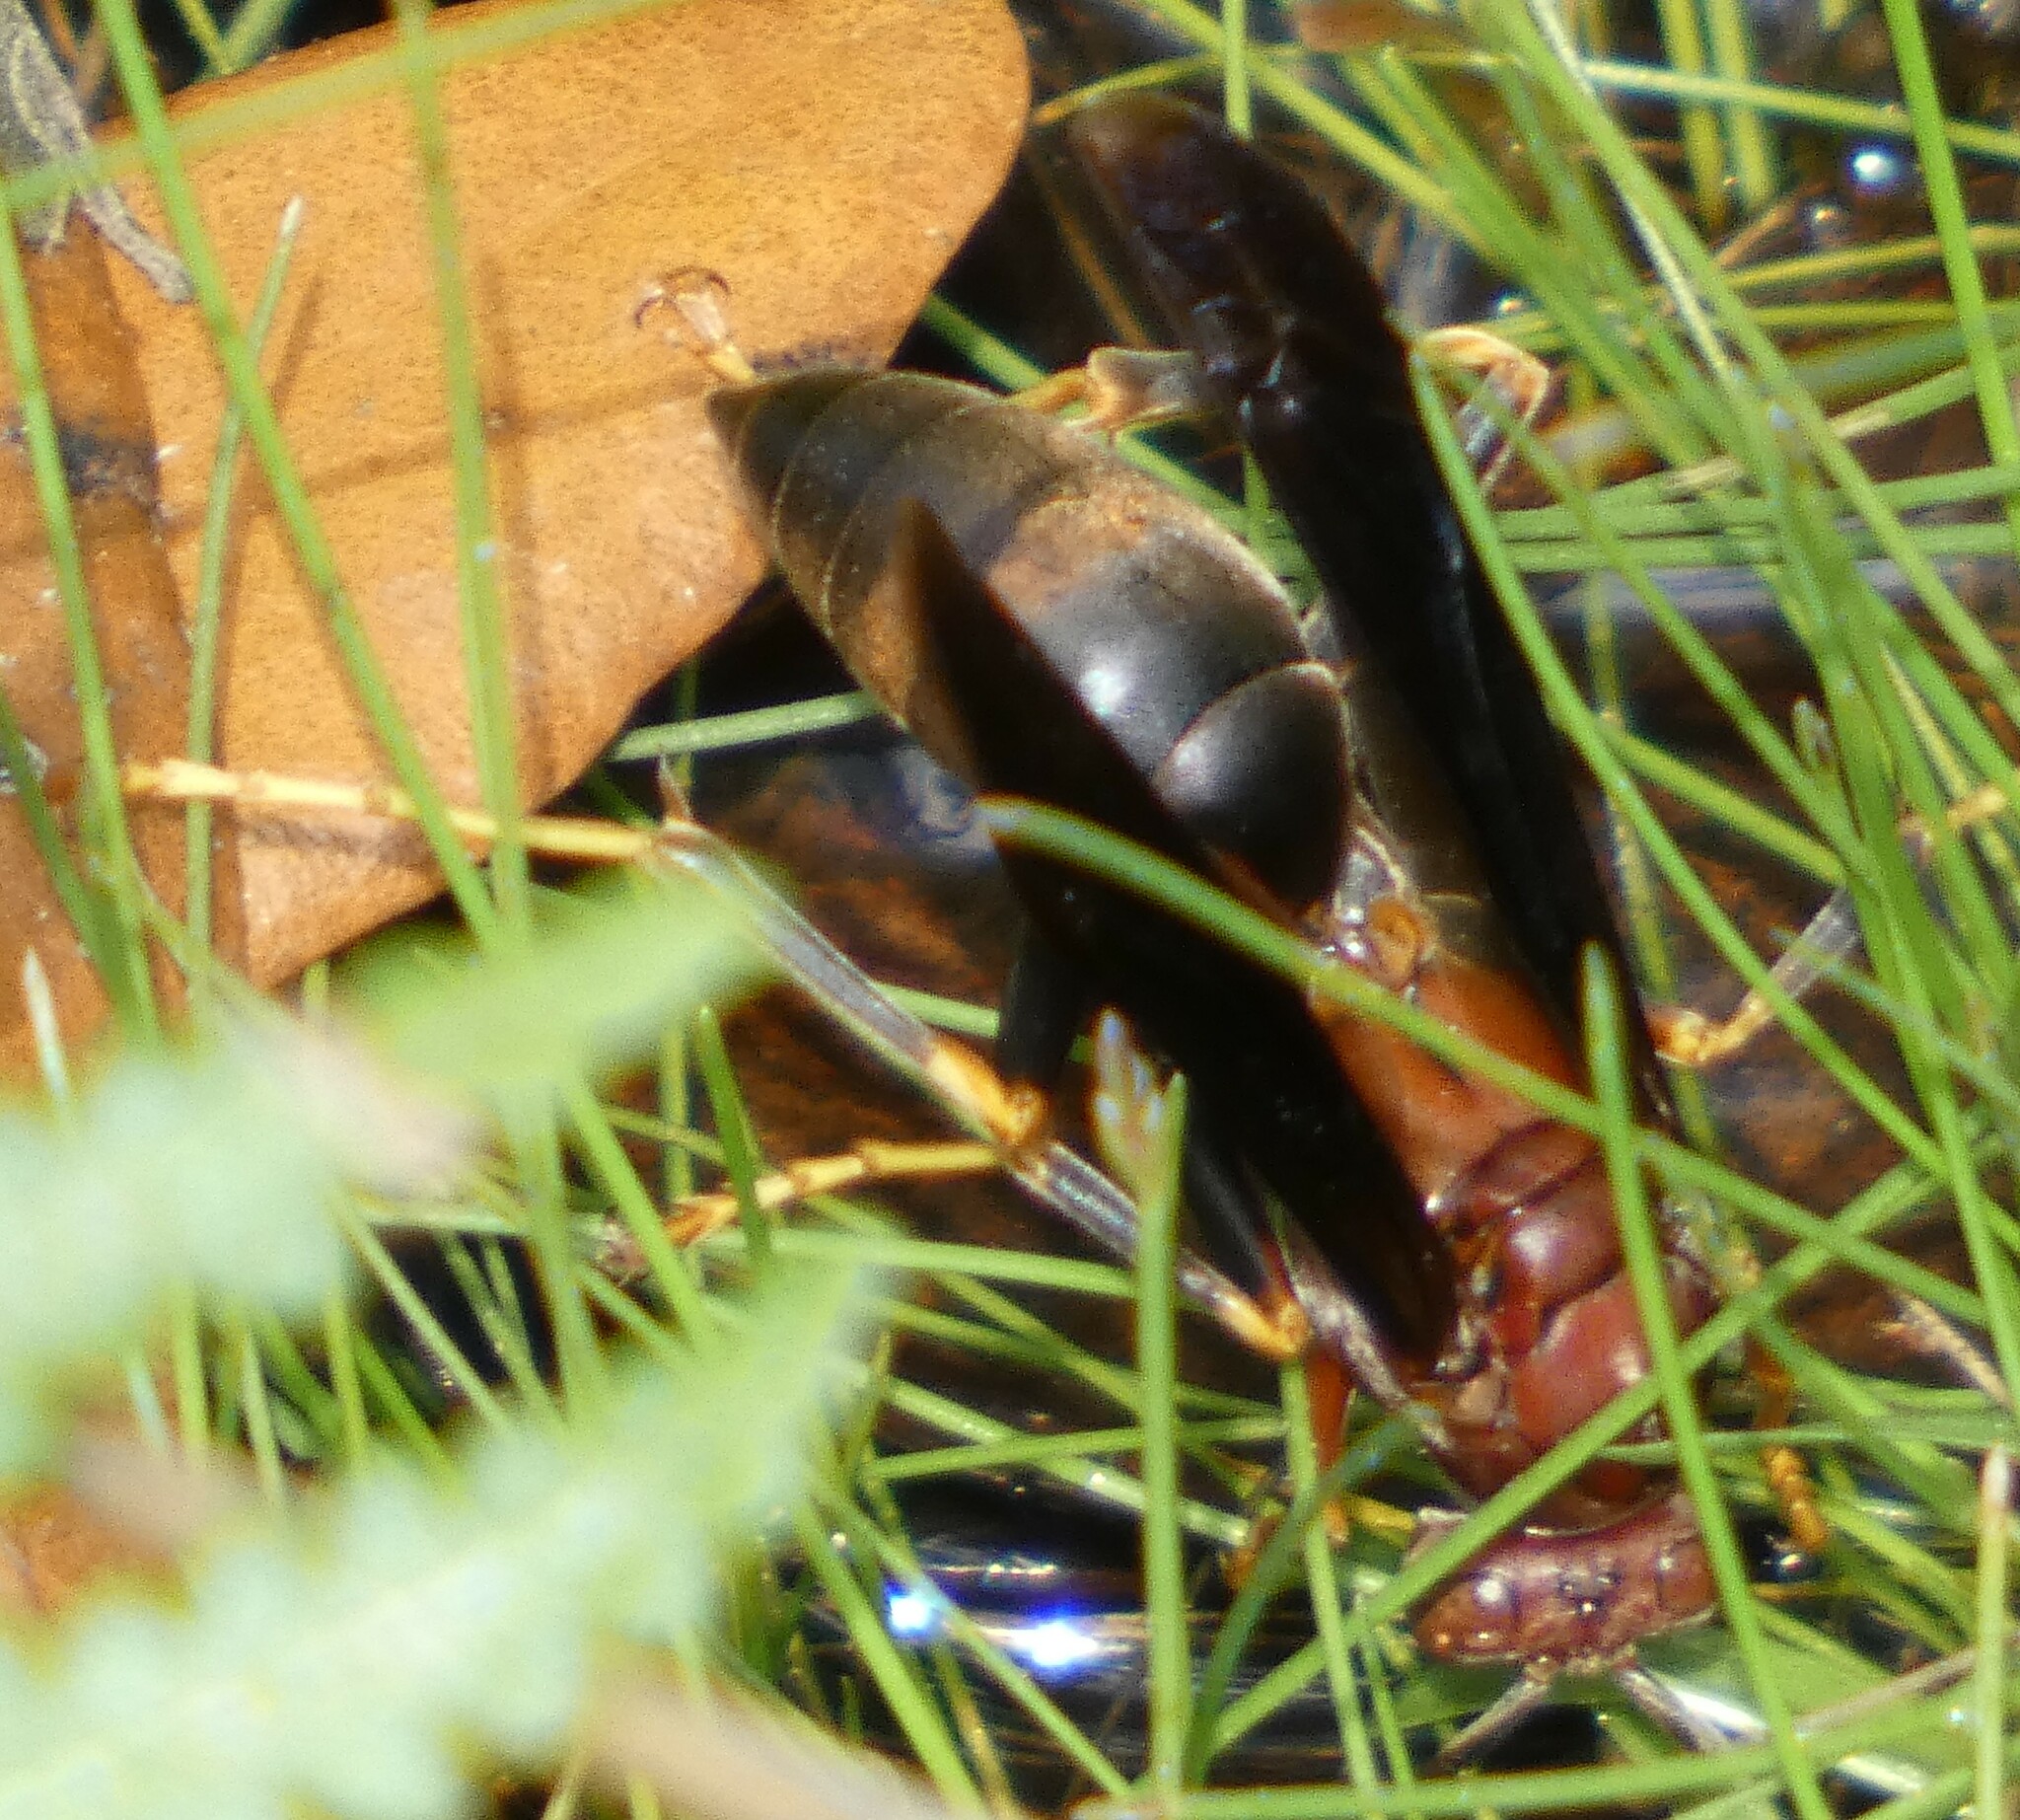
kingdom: Animalia
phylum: Arthropoda
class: Insecta
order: Hymenoptera
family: Eumenidae
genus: Polistes
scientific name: Polistes metricus
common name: Metric paper wasp
